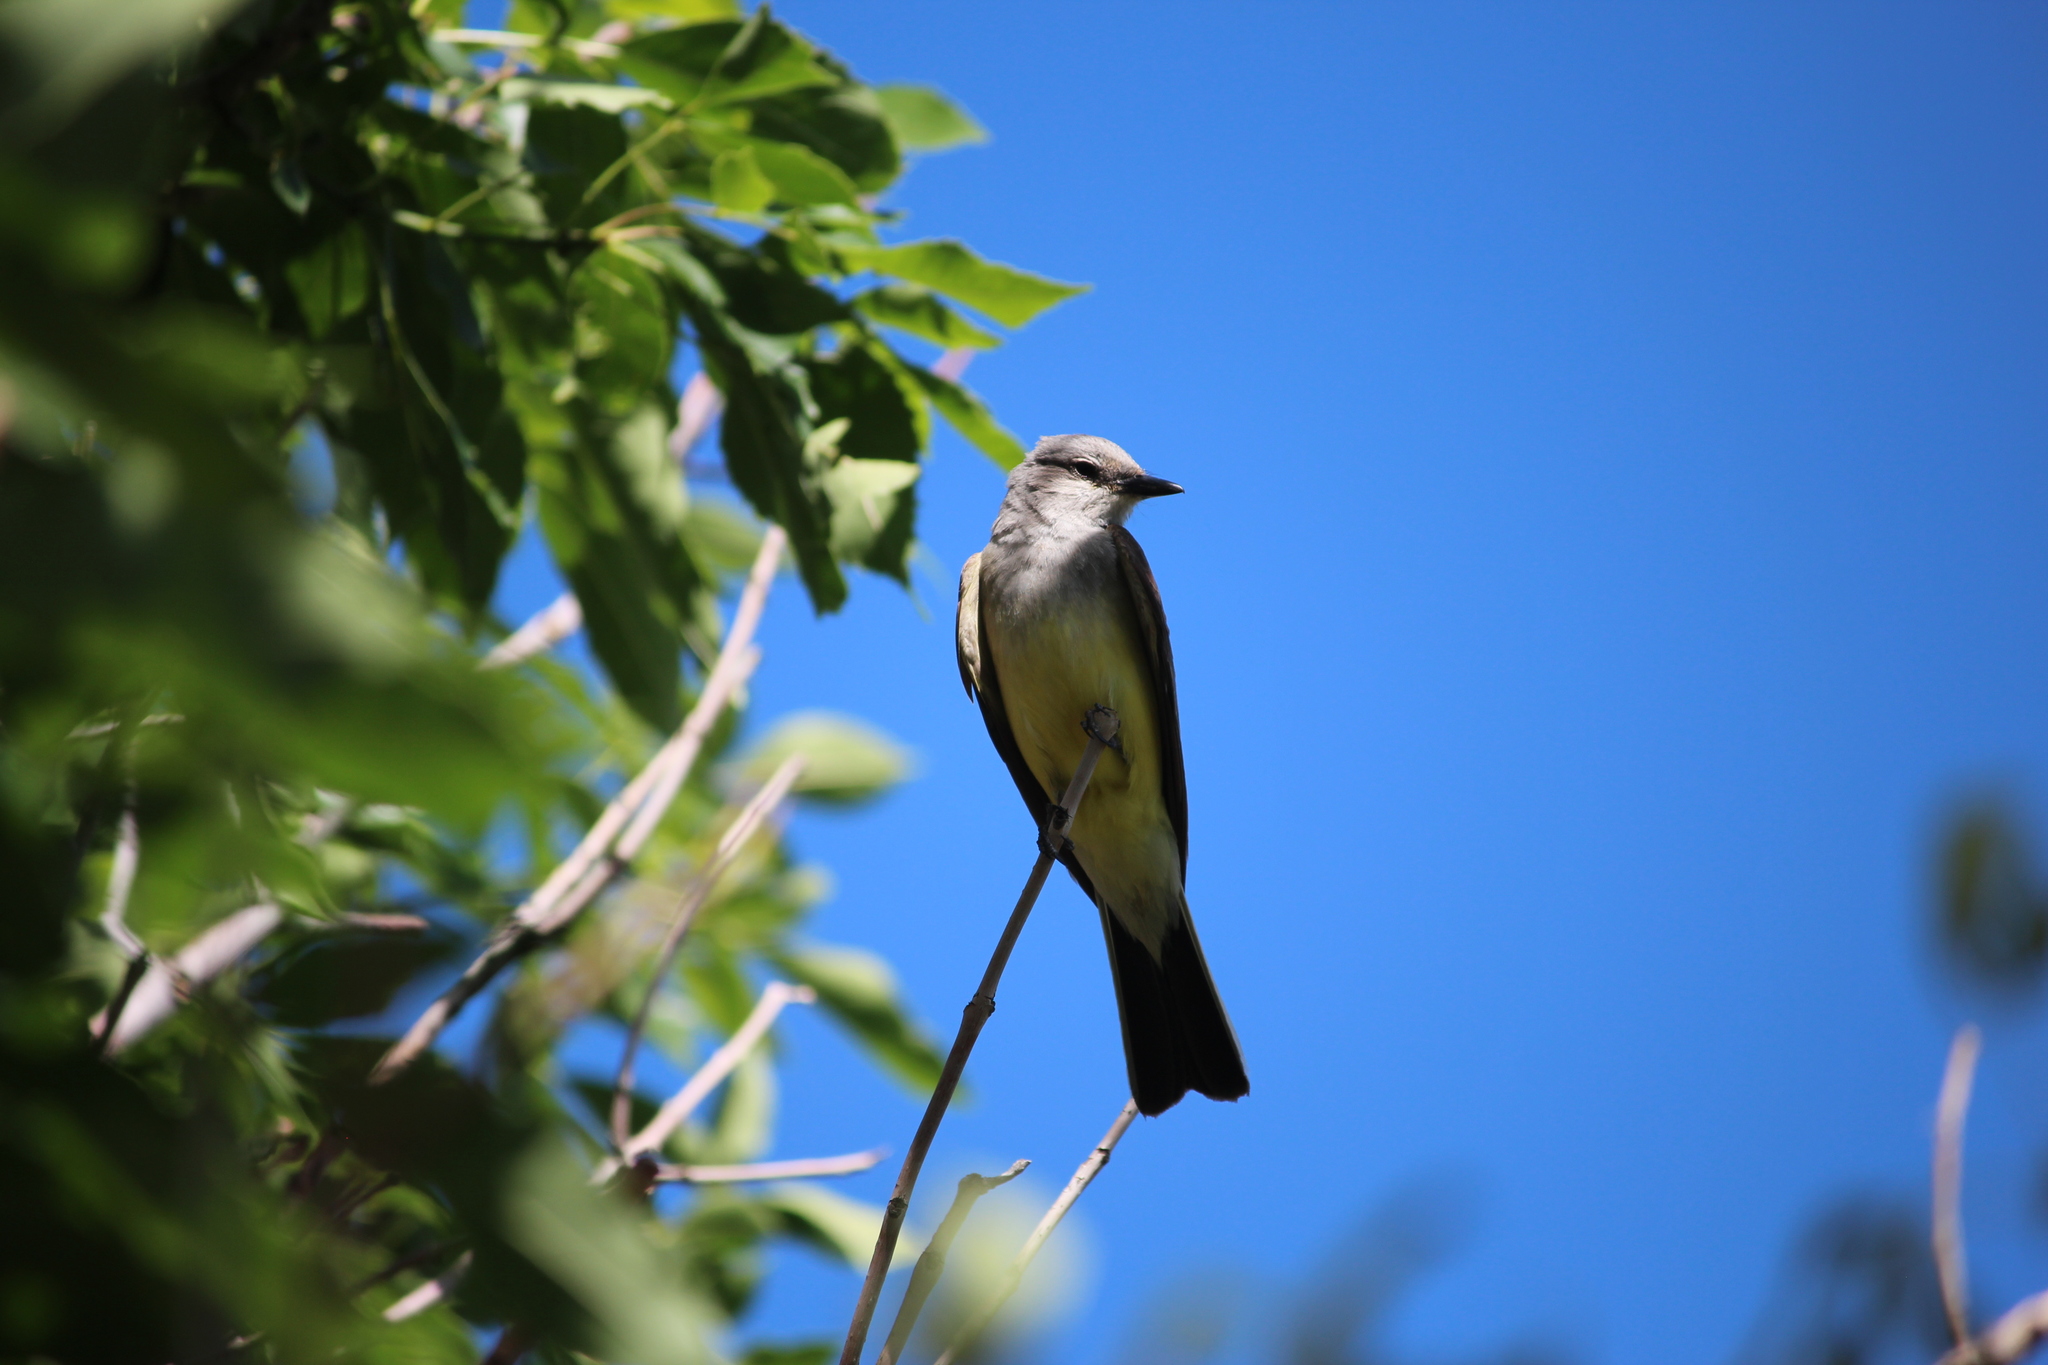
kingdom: Animalia
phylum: Chordata
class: Aves
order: Passeriformes
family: Tyrannidae
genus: Tyrannus
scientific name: Tyrannus verticalis
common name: Western kingbird
